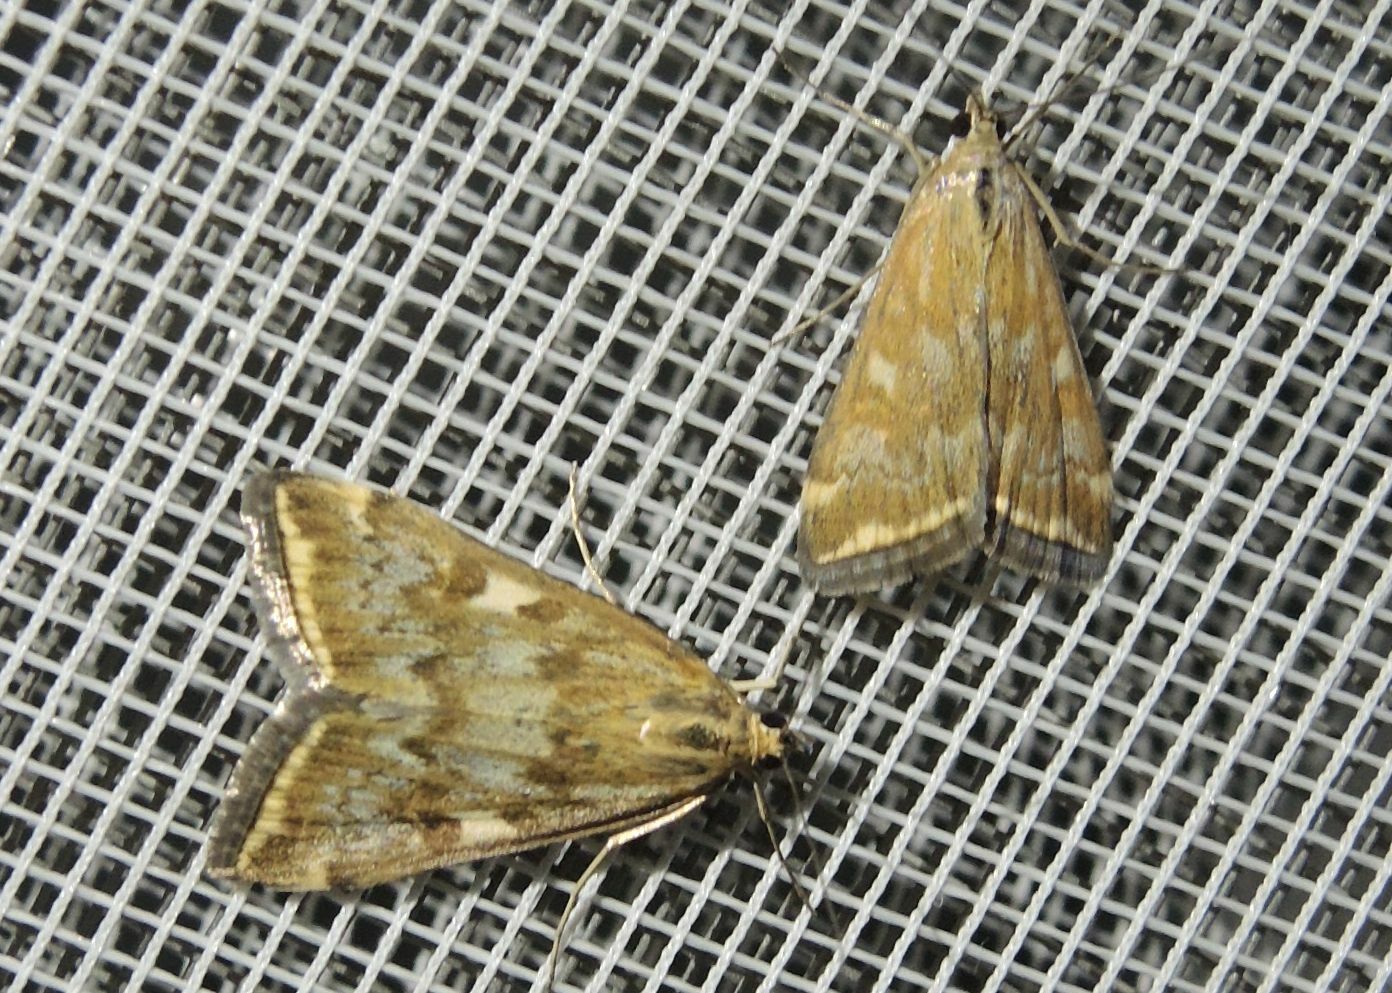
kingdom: Animalia
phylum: Arthropoda
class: Insecta
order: Lepidoptera
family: Crambidae
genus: Loxostege
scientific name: Loxostege sticticalis
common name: Crambid moth
